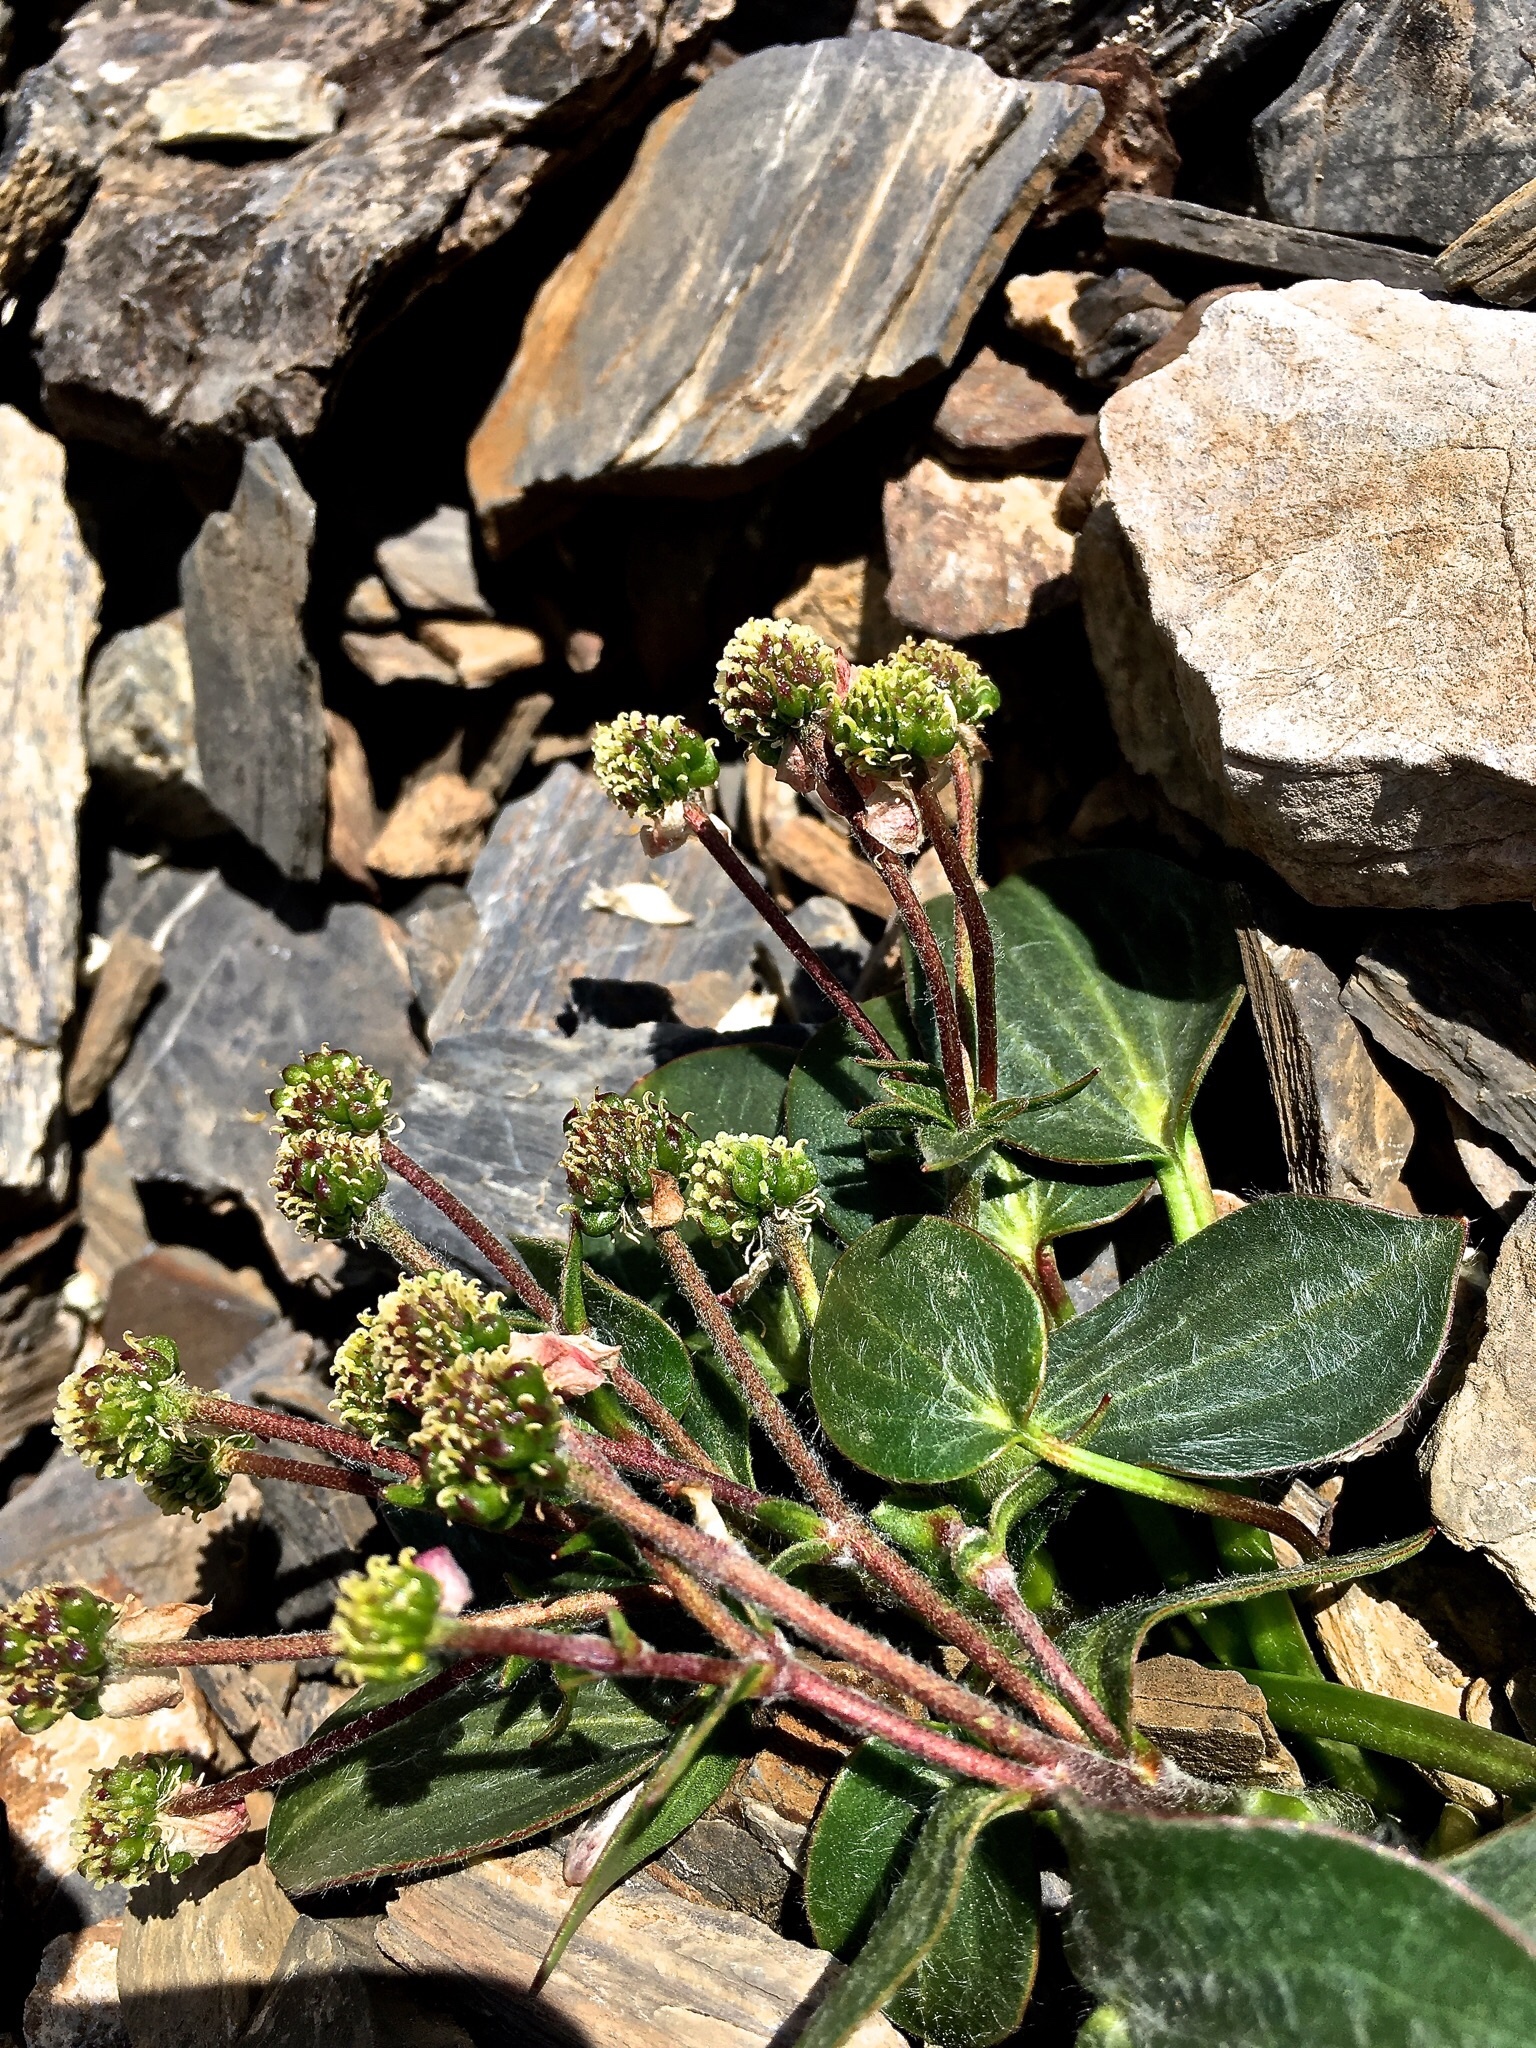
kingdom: Plantae
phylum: Tracheophyta
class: Magnoliopsida
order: Ranunculales
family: Ranunculaceae
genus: Ranunculus
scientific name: Ranunculus parnassiifolius
